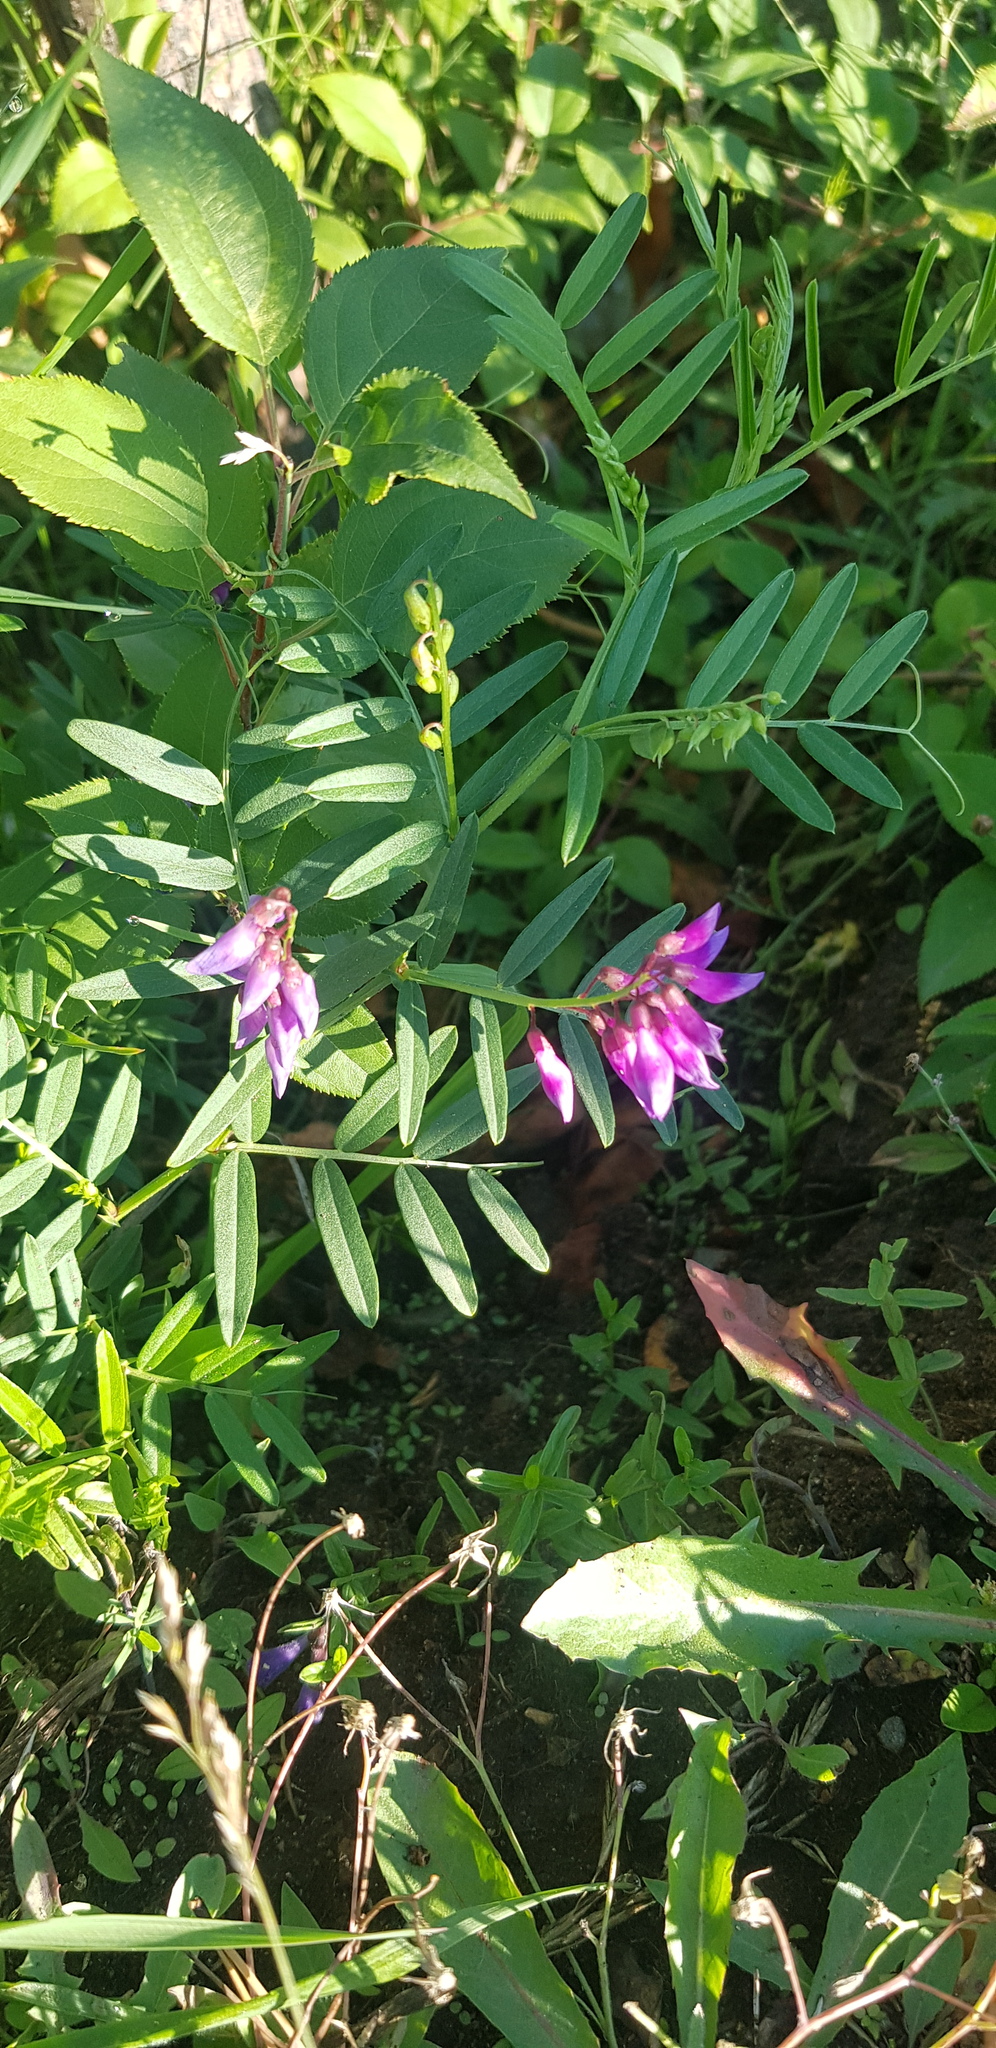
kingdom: Plantae
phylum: Tracheophyta
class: Magnoliopsida
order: Fabales
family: Fabaceae
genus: Vicia
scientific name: Vicia amoena
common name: Cheder ebs
